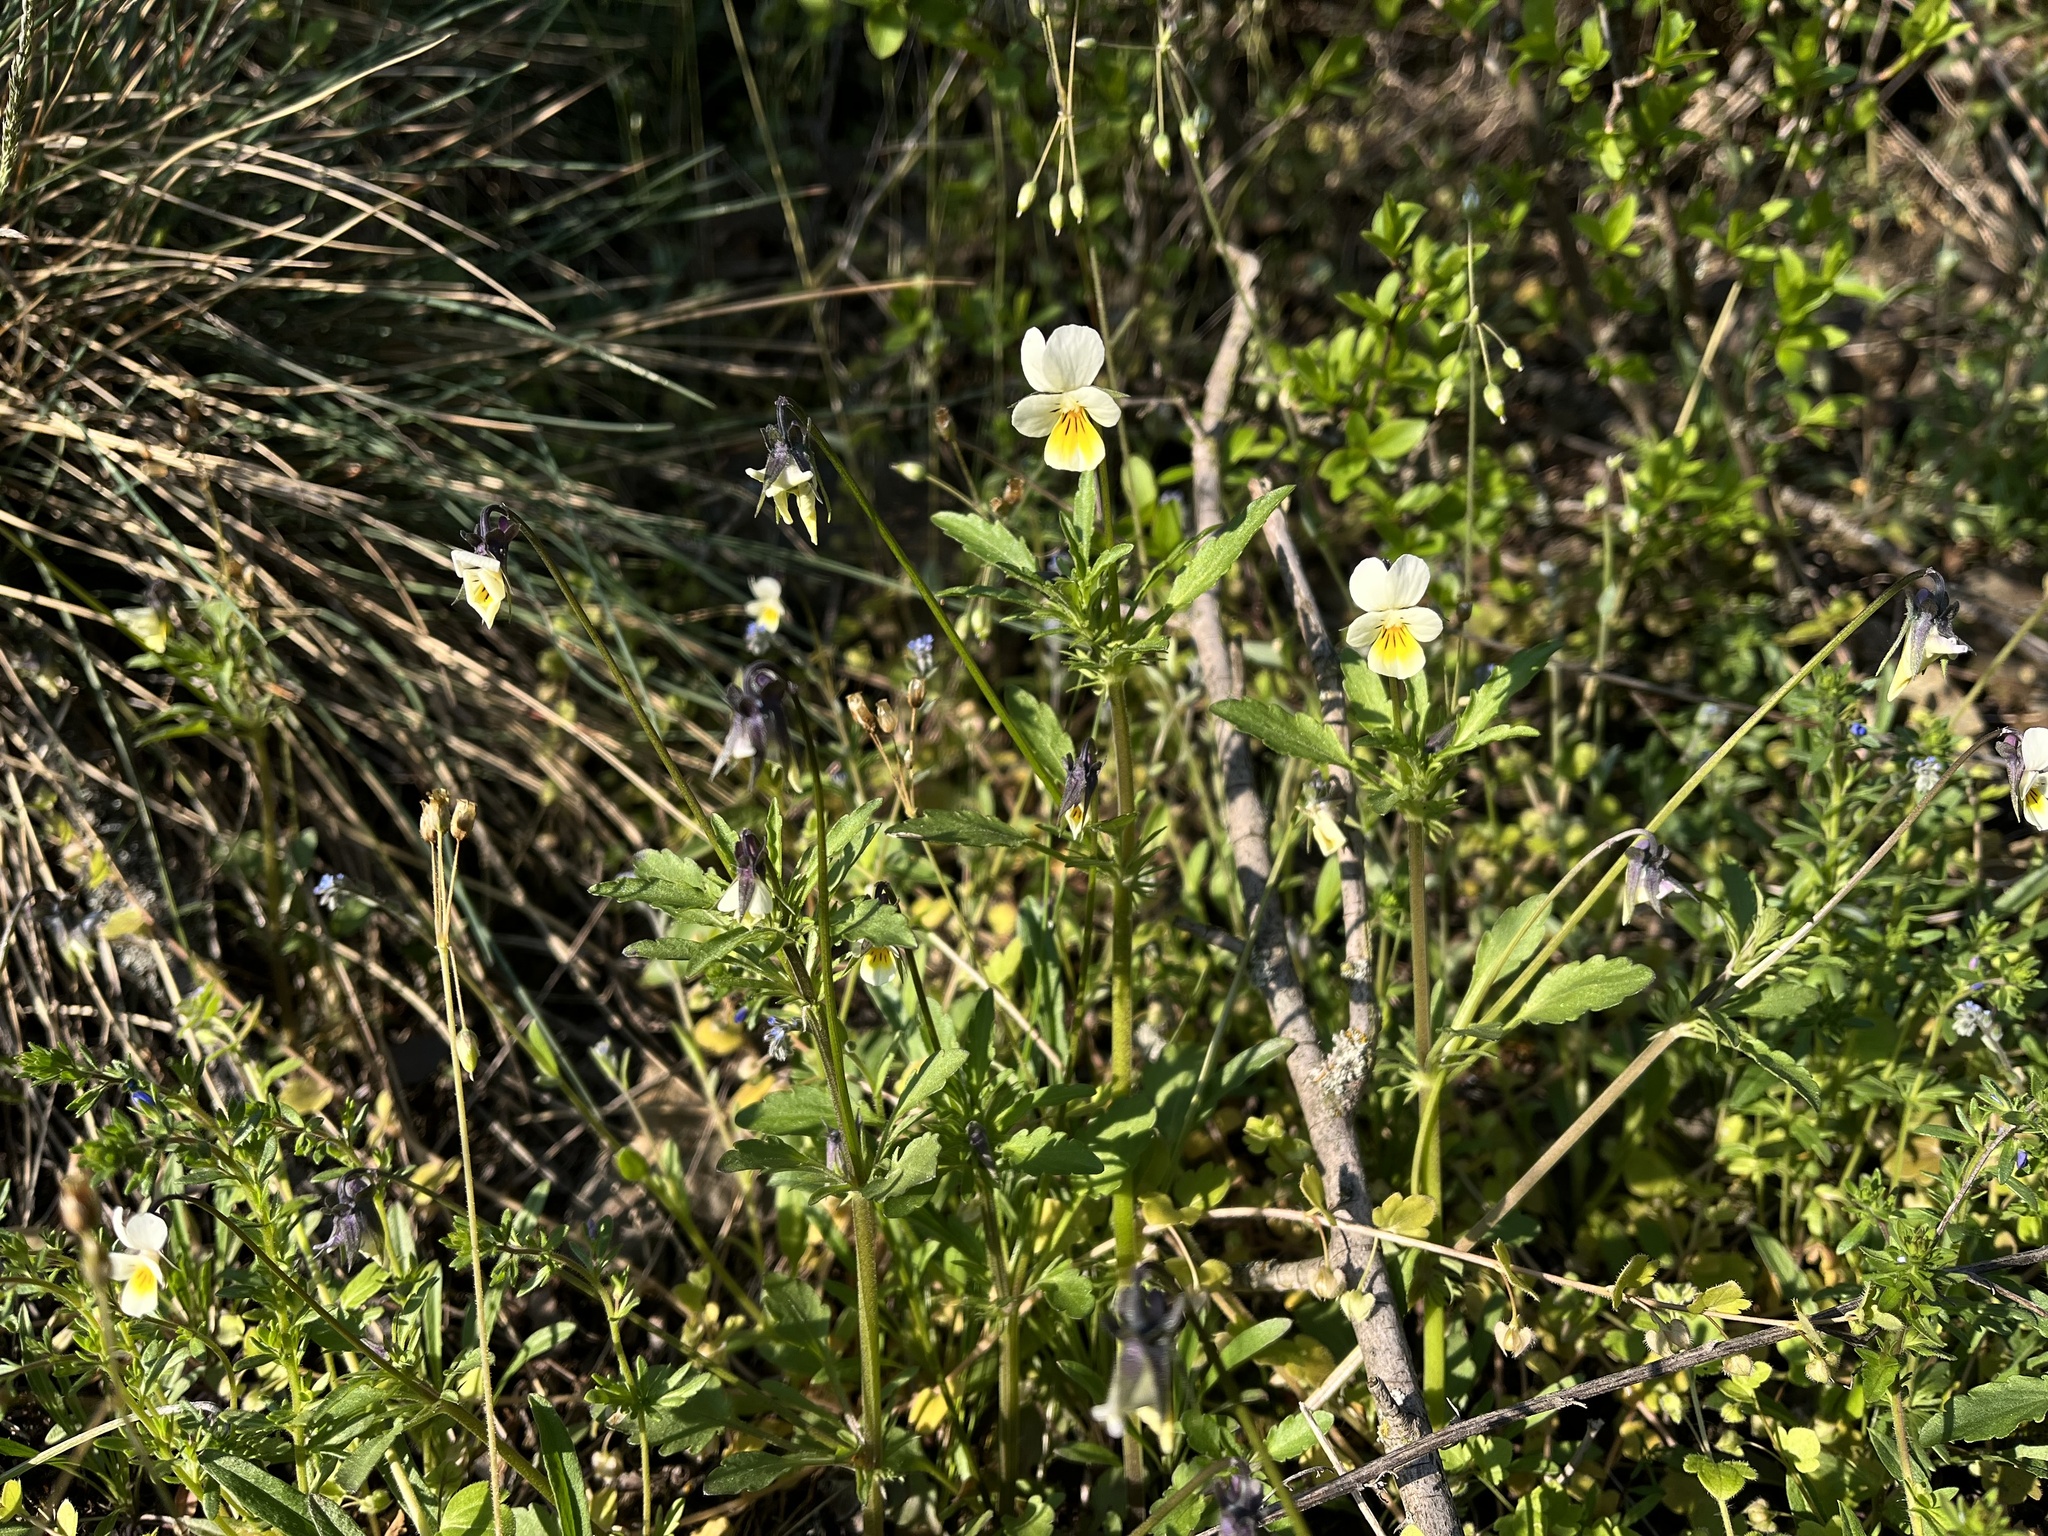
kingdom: Plantae
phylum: Tracheophyta
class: Magnoliopsida
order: Malpighiales
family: Violaceae
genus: Viola
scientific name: Viola arvensis
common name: Field pansy
